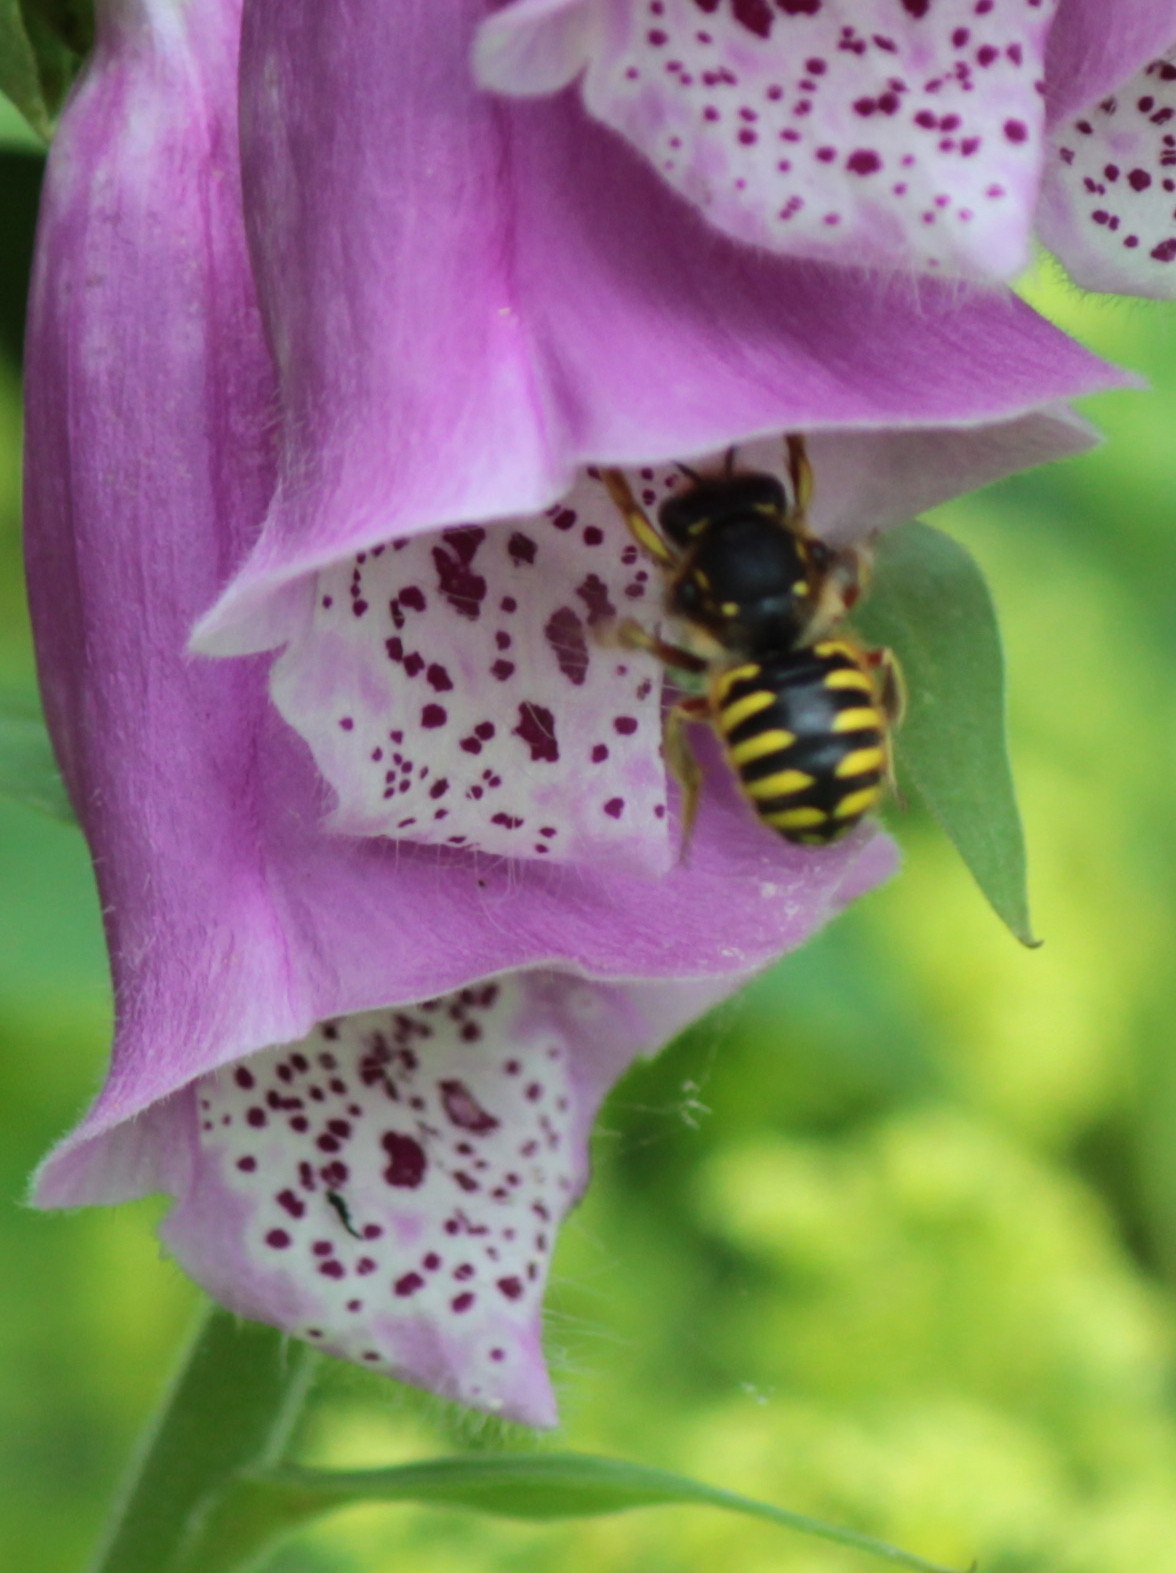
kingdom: Animalia
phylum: Arthropoda
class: Insecta
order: Hymenoptera
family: Megachilidae
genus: Anthidium
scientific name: Anthidium manicatum
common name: Wool carder bee
